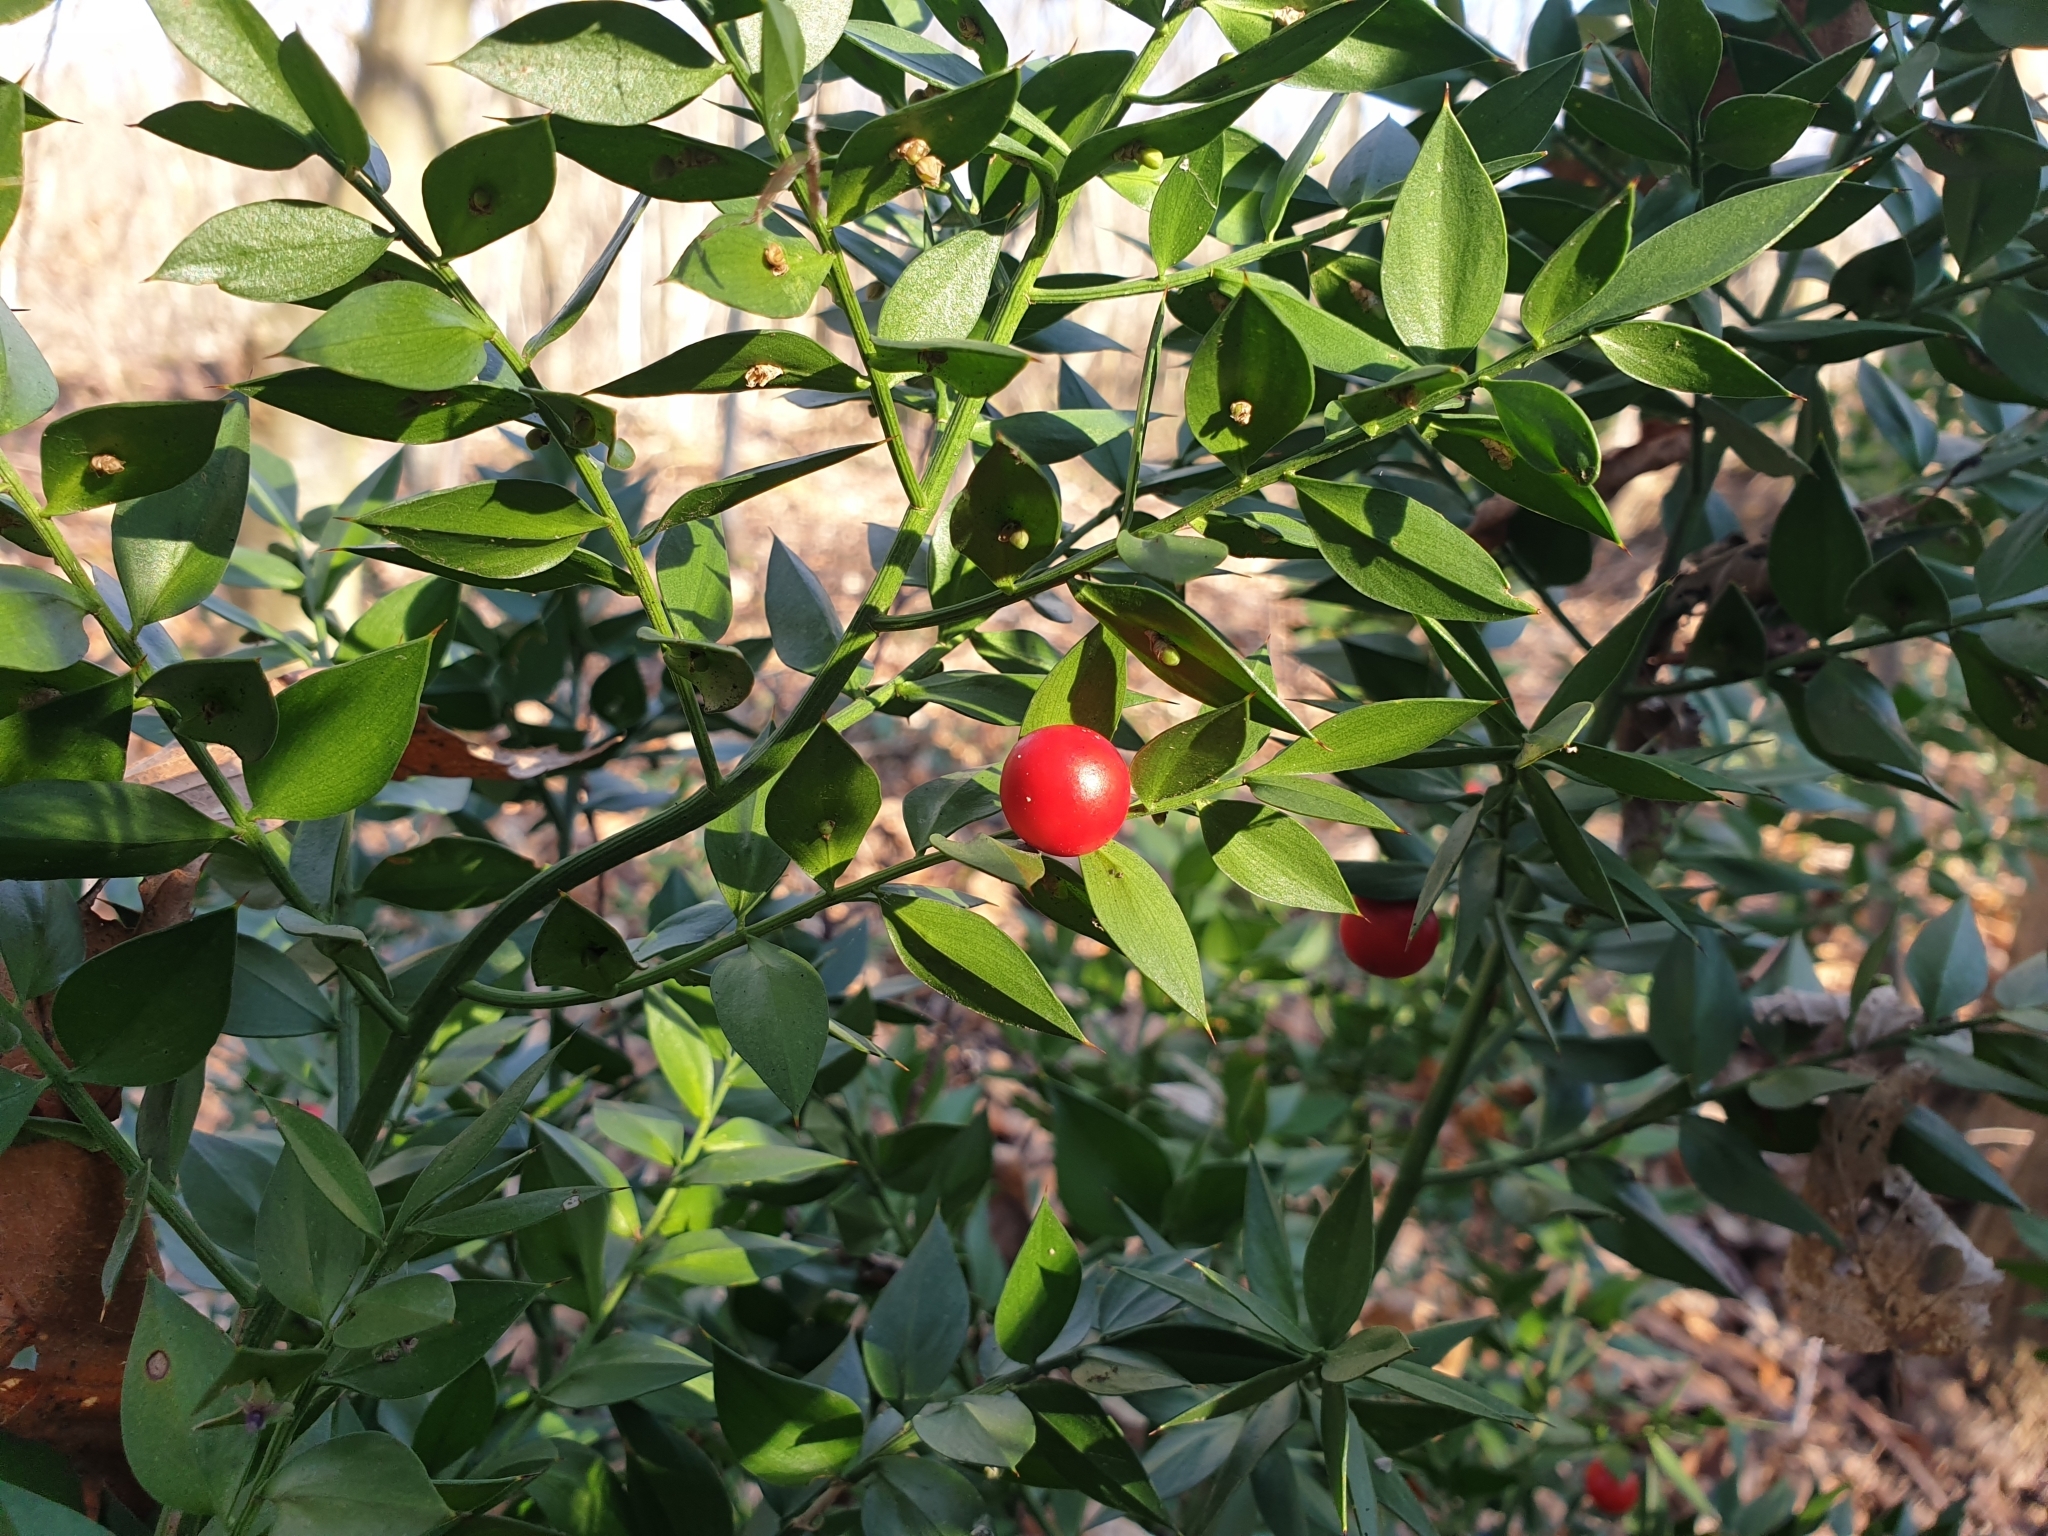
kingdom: Plantae
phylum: Tracheophyta
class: Liliopsida
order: Asparagales
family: Asparagaceae
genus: Ruscus
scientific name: Ruscus aculeatus
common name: Butcher's-broom
